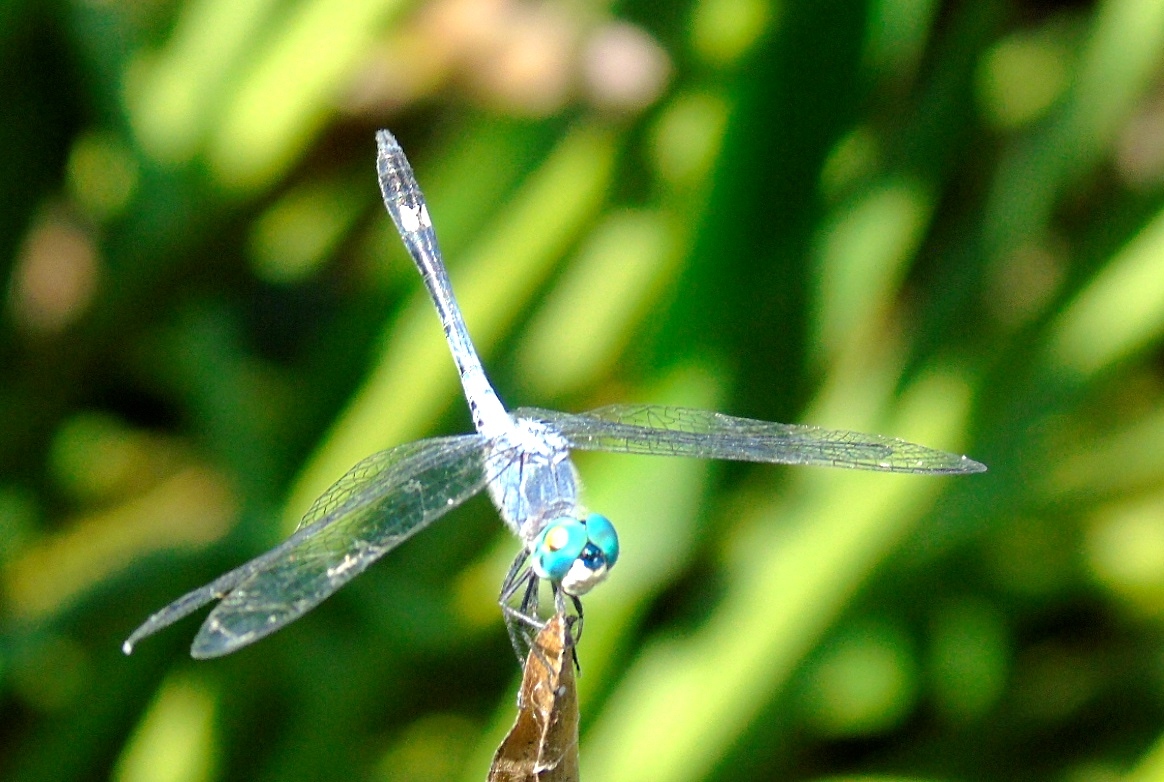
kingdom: Animalia
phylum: Arthropoda
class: Insecta
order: Odonata
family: Libellulidae
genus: Micrathyria
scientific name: Micrathyria aequalis
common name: Spot-tailed dasher
